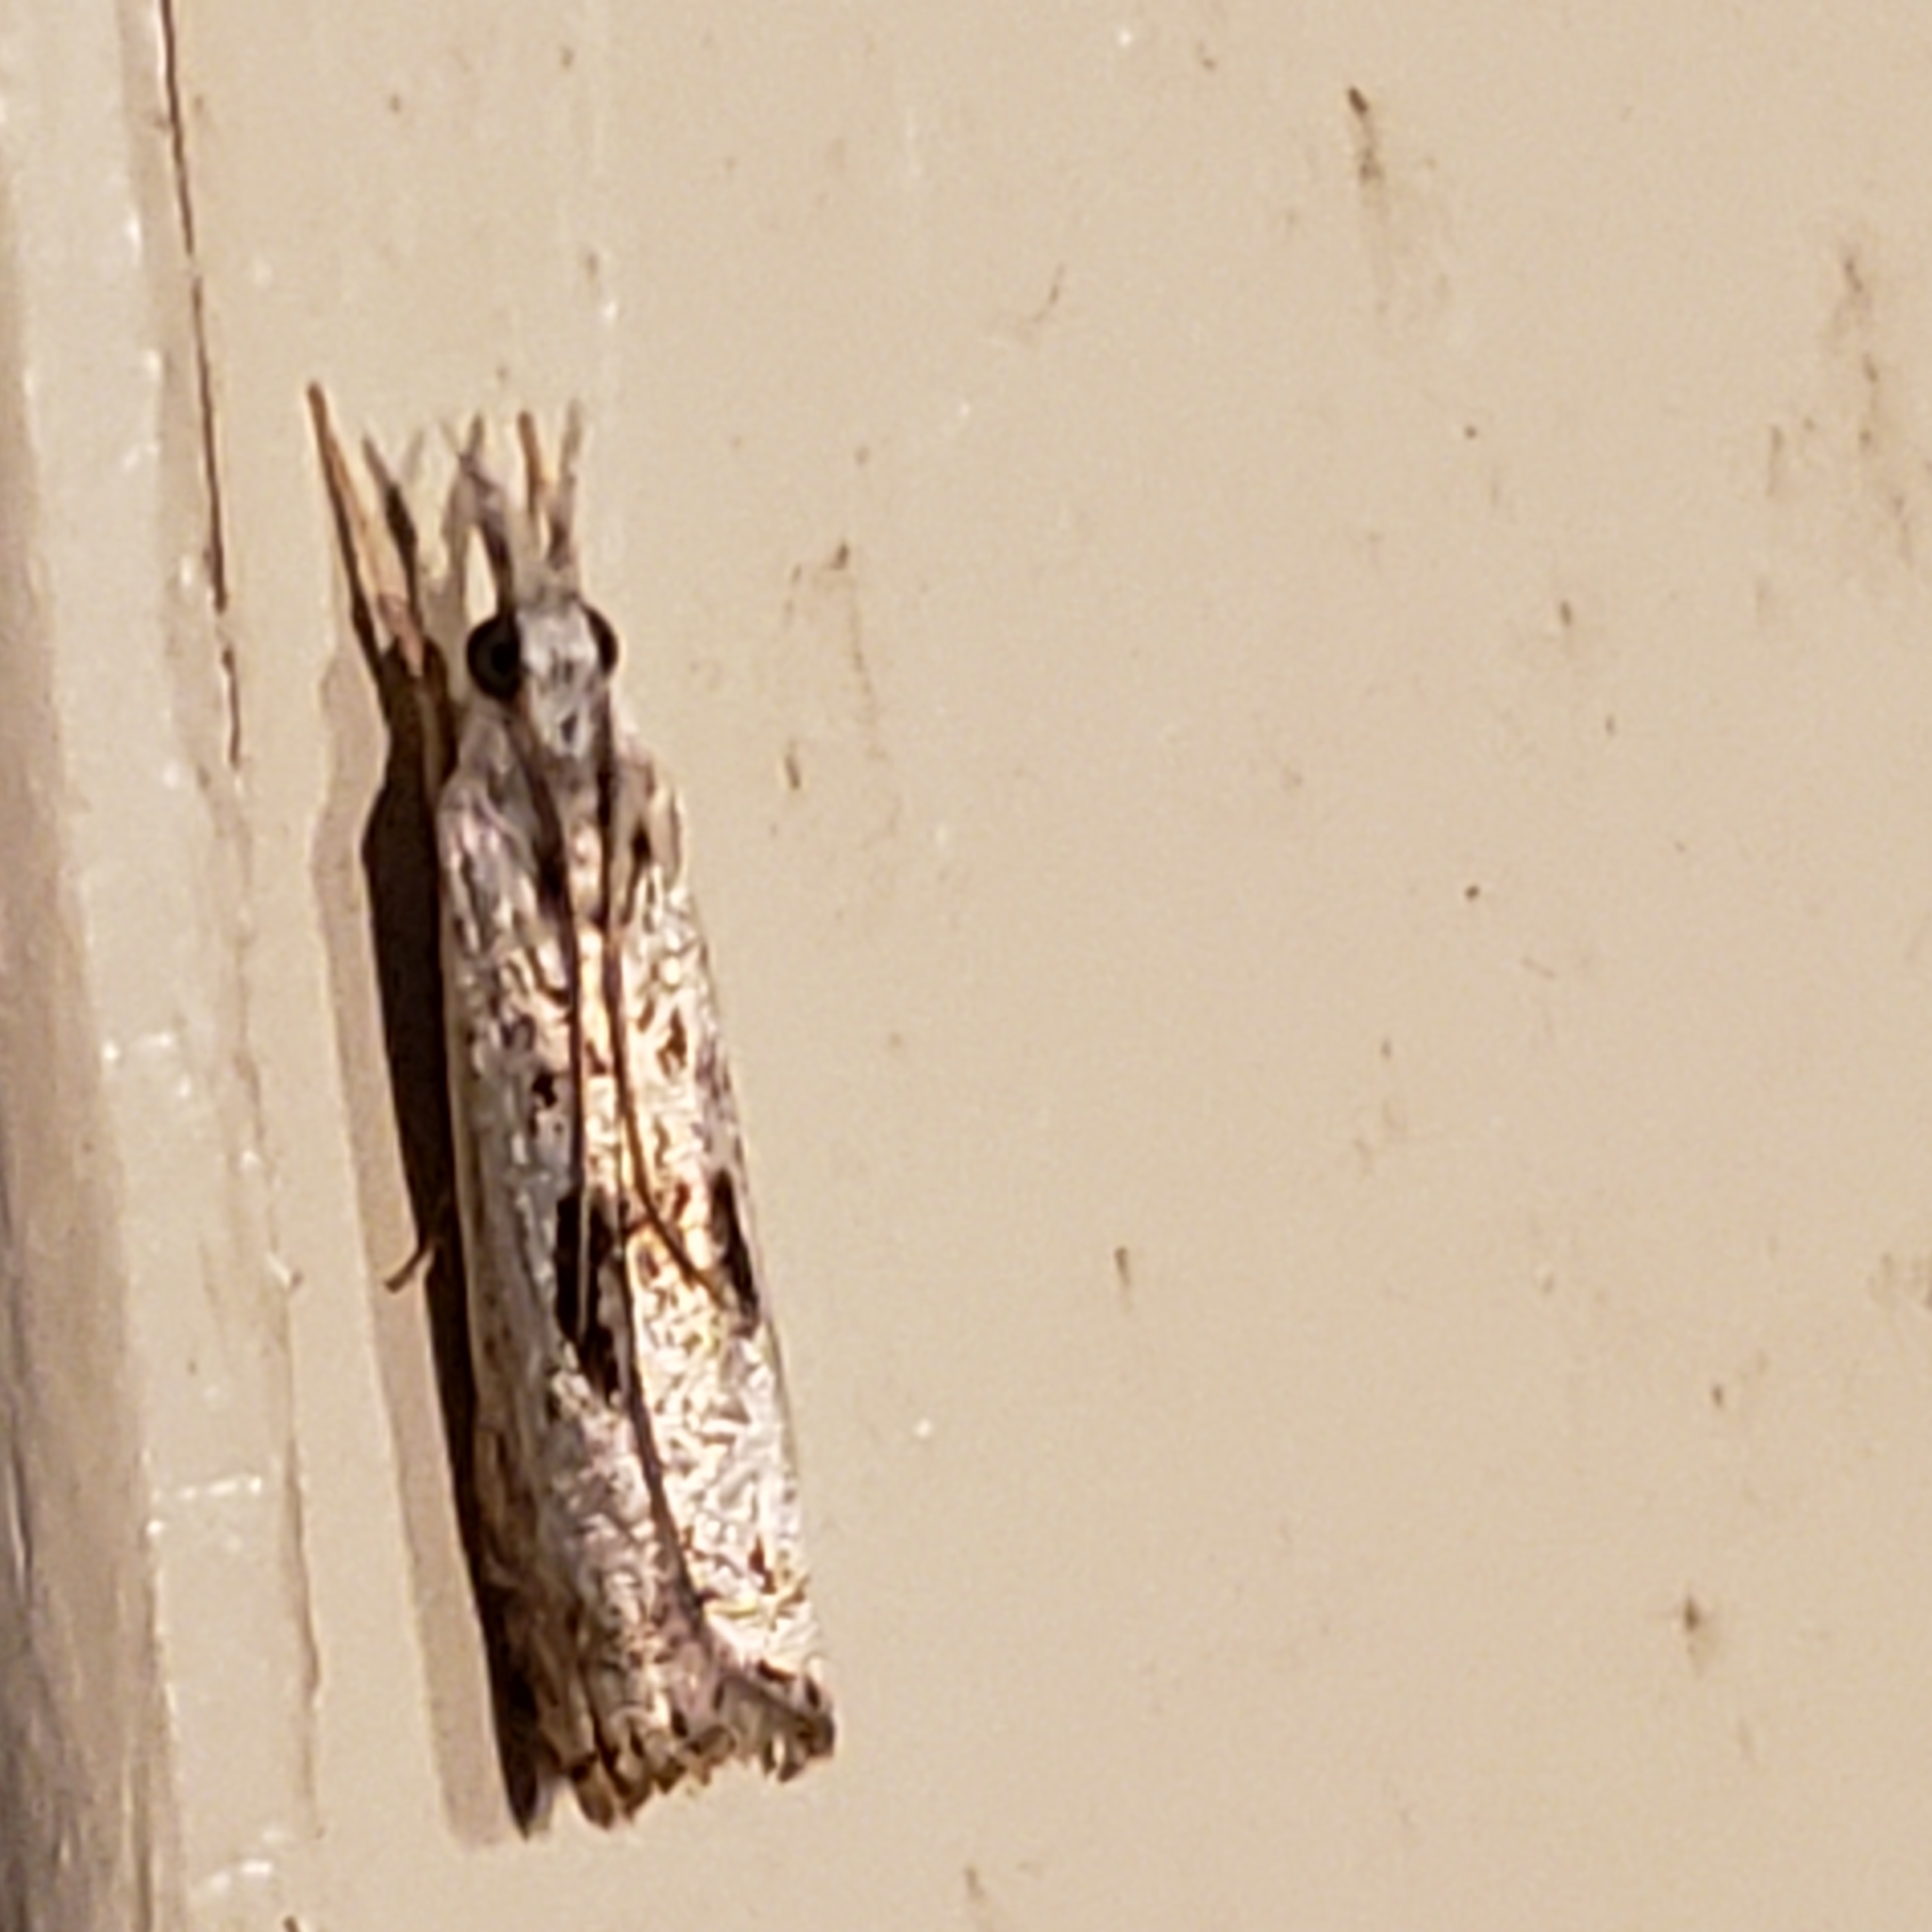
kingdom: Animalia
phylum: Arthropoda
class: Insecta
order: Lepidoptera
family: Crambidae
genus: Microcrambus
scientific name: Microcrambus elegans
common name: Elegant grass-veneer
